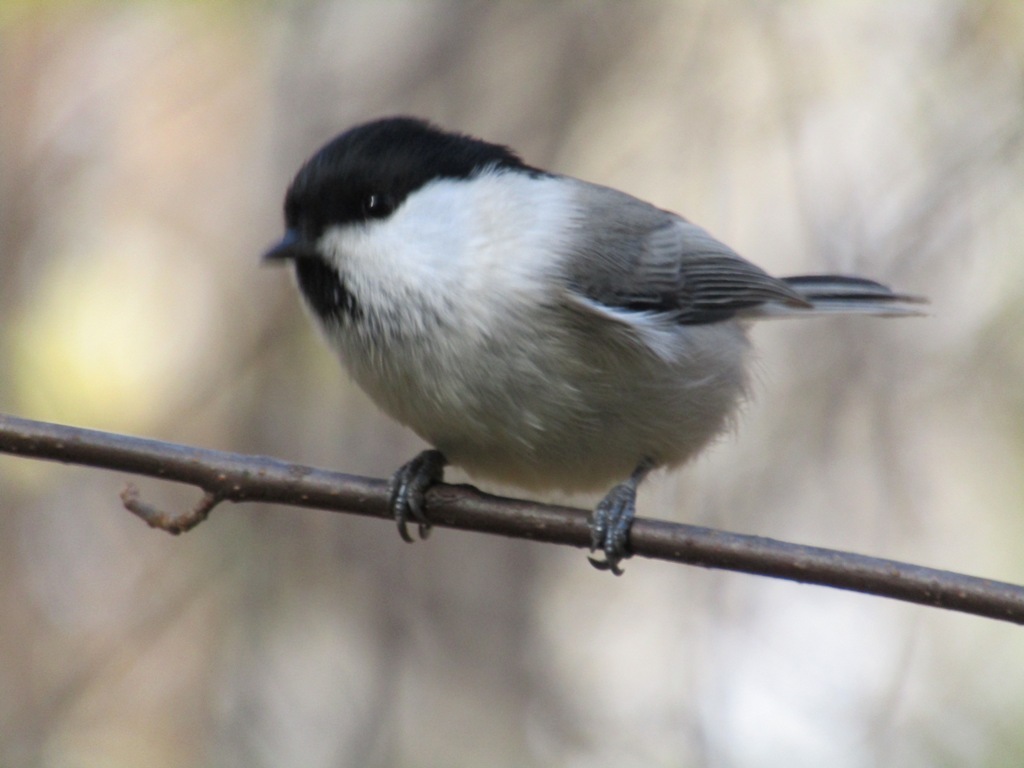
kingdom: Animalia
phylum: Chordata
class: Aves
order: Passeriformes
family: Paridae
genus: Poecile
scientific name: Poecile montanus
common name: Willow tit
